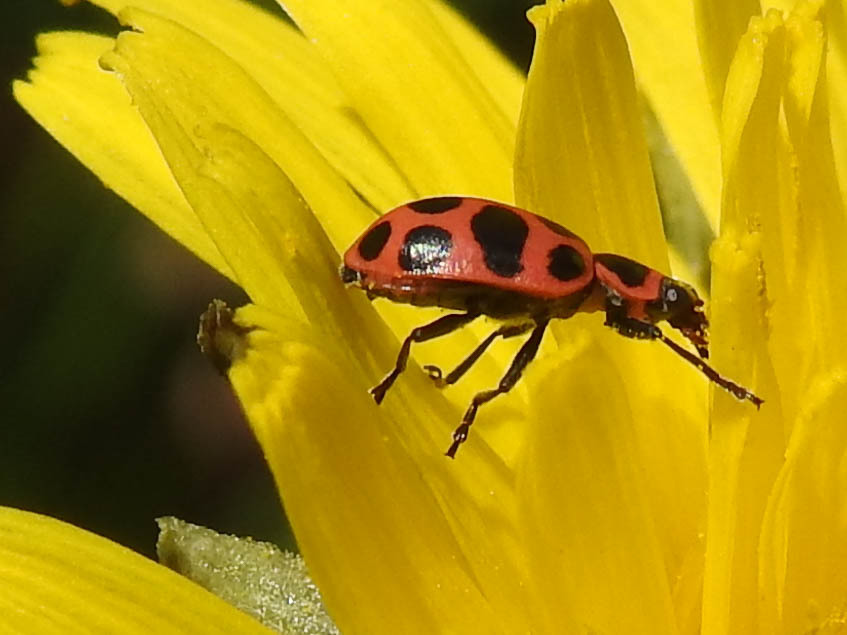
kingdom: Animalia
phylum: Arthropoda
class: Insecta
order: Coleoptera
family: Coccinellidae
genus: Coleomegilla
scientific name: Coleomegilla maculata
